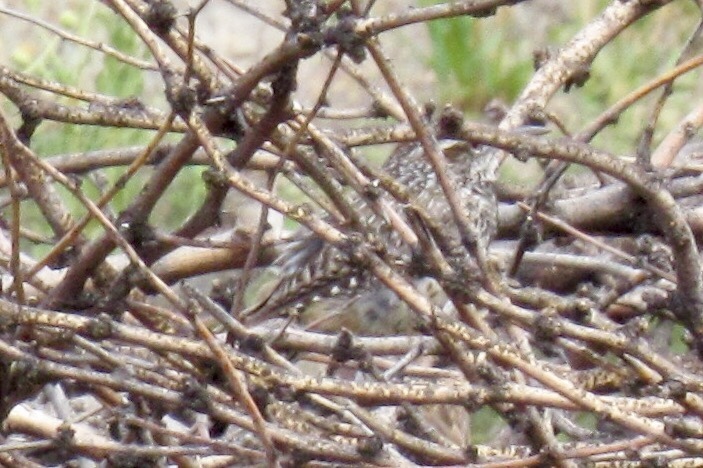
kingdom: Animalia
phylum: Chordata
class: Aves
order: Passeriformes
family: Troglodytidae
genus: Campylorhynchus
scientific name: Campylorhynchus brunneicapillus
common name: Cactus wren
